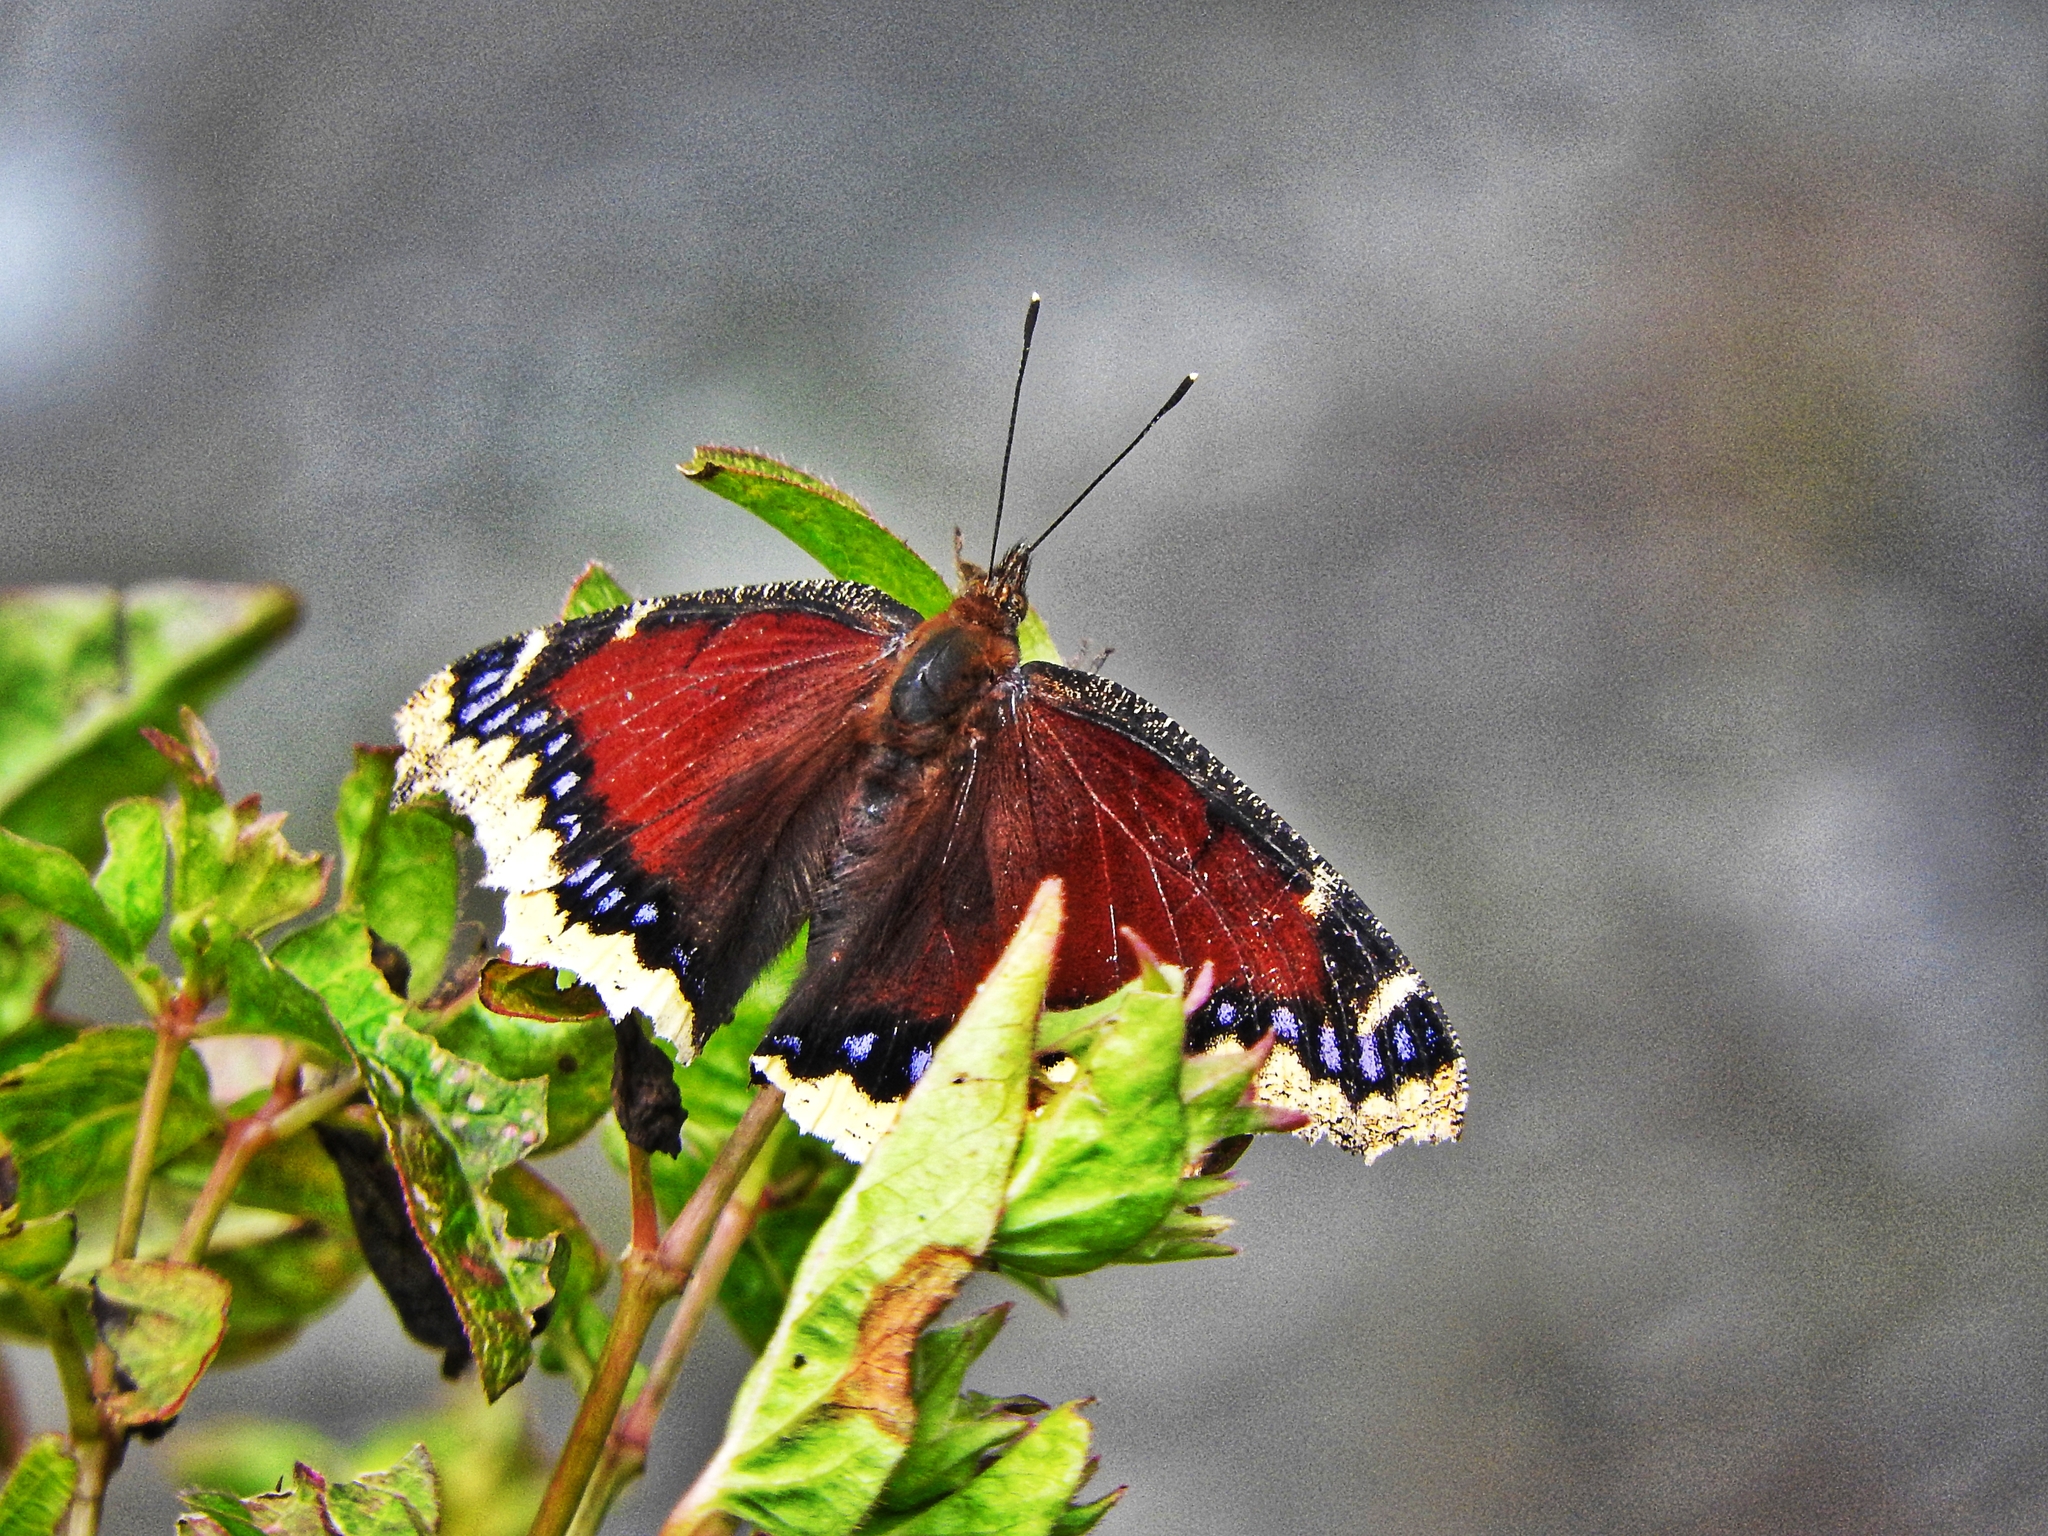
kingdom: Animalia
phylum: Arthropoda
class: Insecta
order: Lepidoptera
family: Nymphalidae
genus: Nymphalis
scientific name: Nymphalis antiopa
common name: Camberwell beauty
